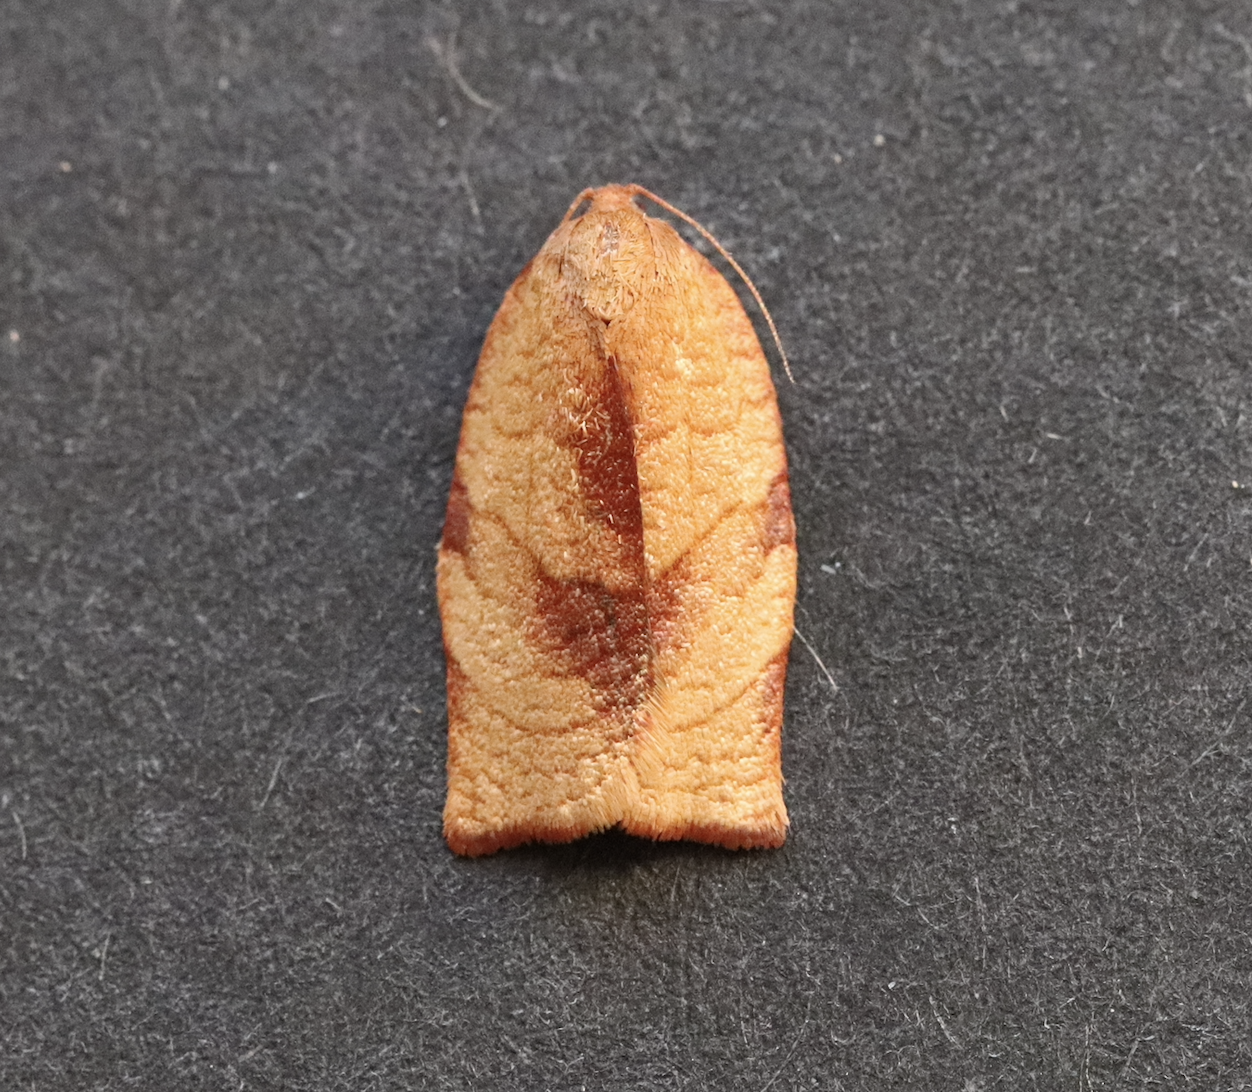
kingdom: Animalia
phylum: Arthropoda
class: Insecta
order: Lepidoptera
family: Tortricidae
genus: Cacoecimorpha
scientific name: Cacoecimorpha pronubana
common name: Carnation tortrix
